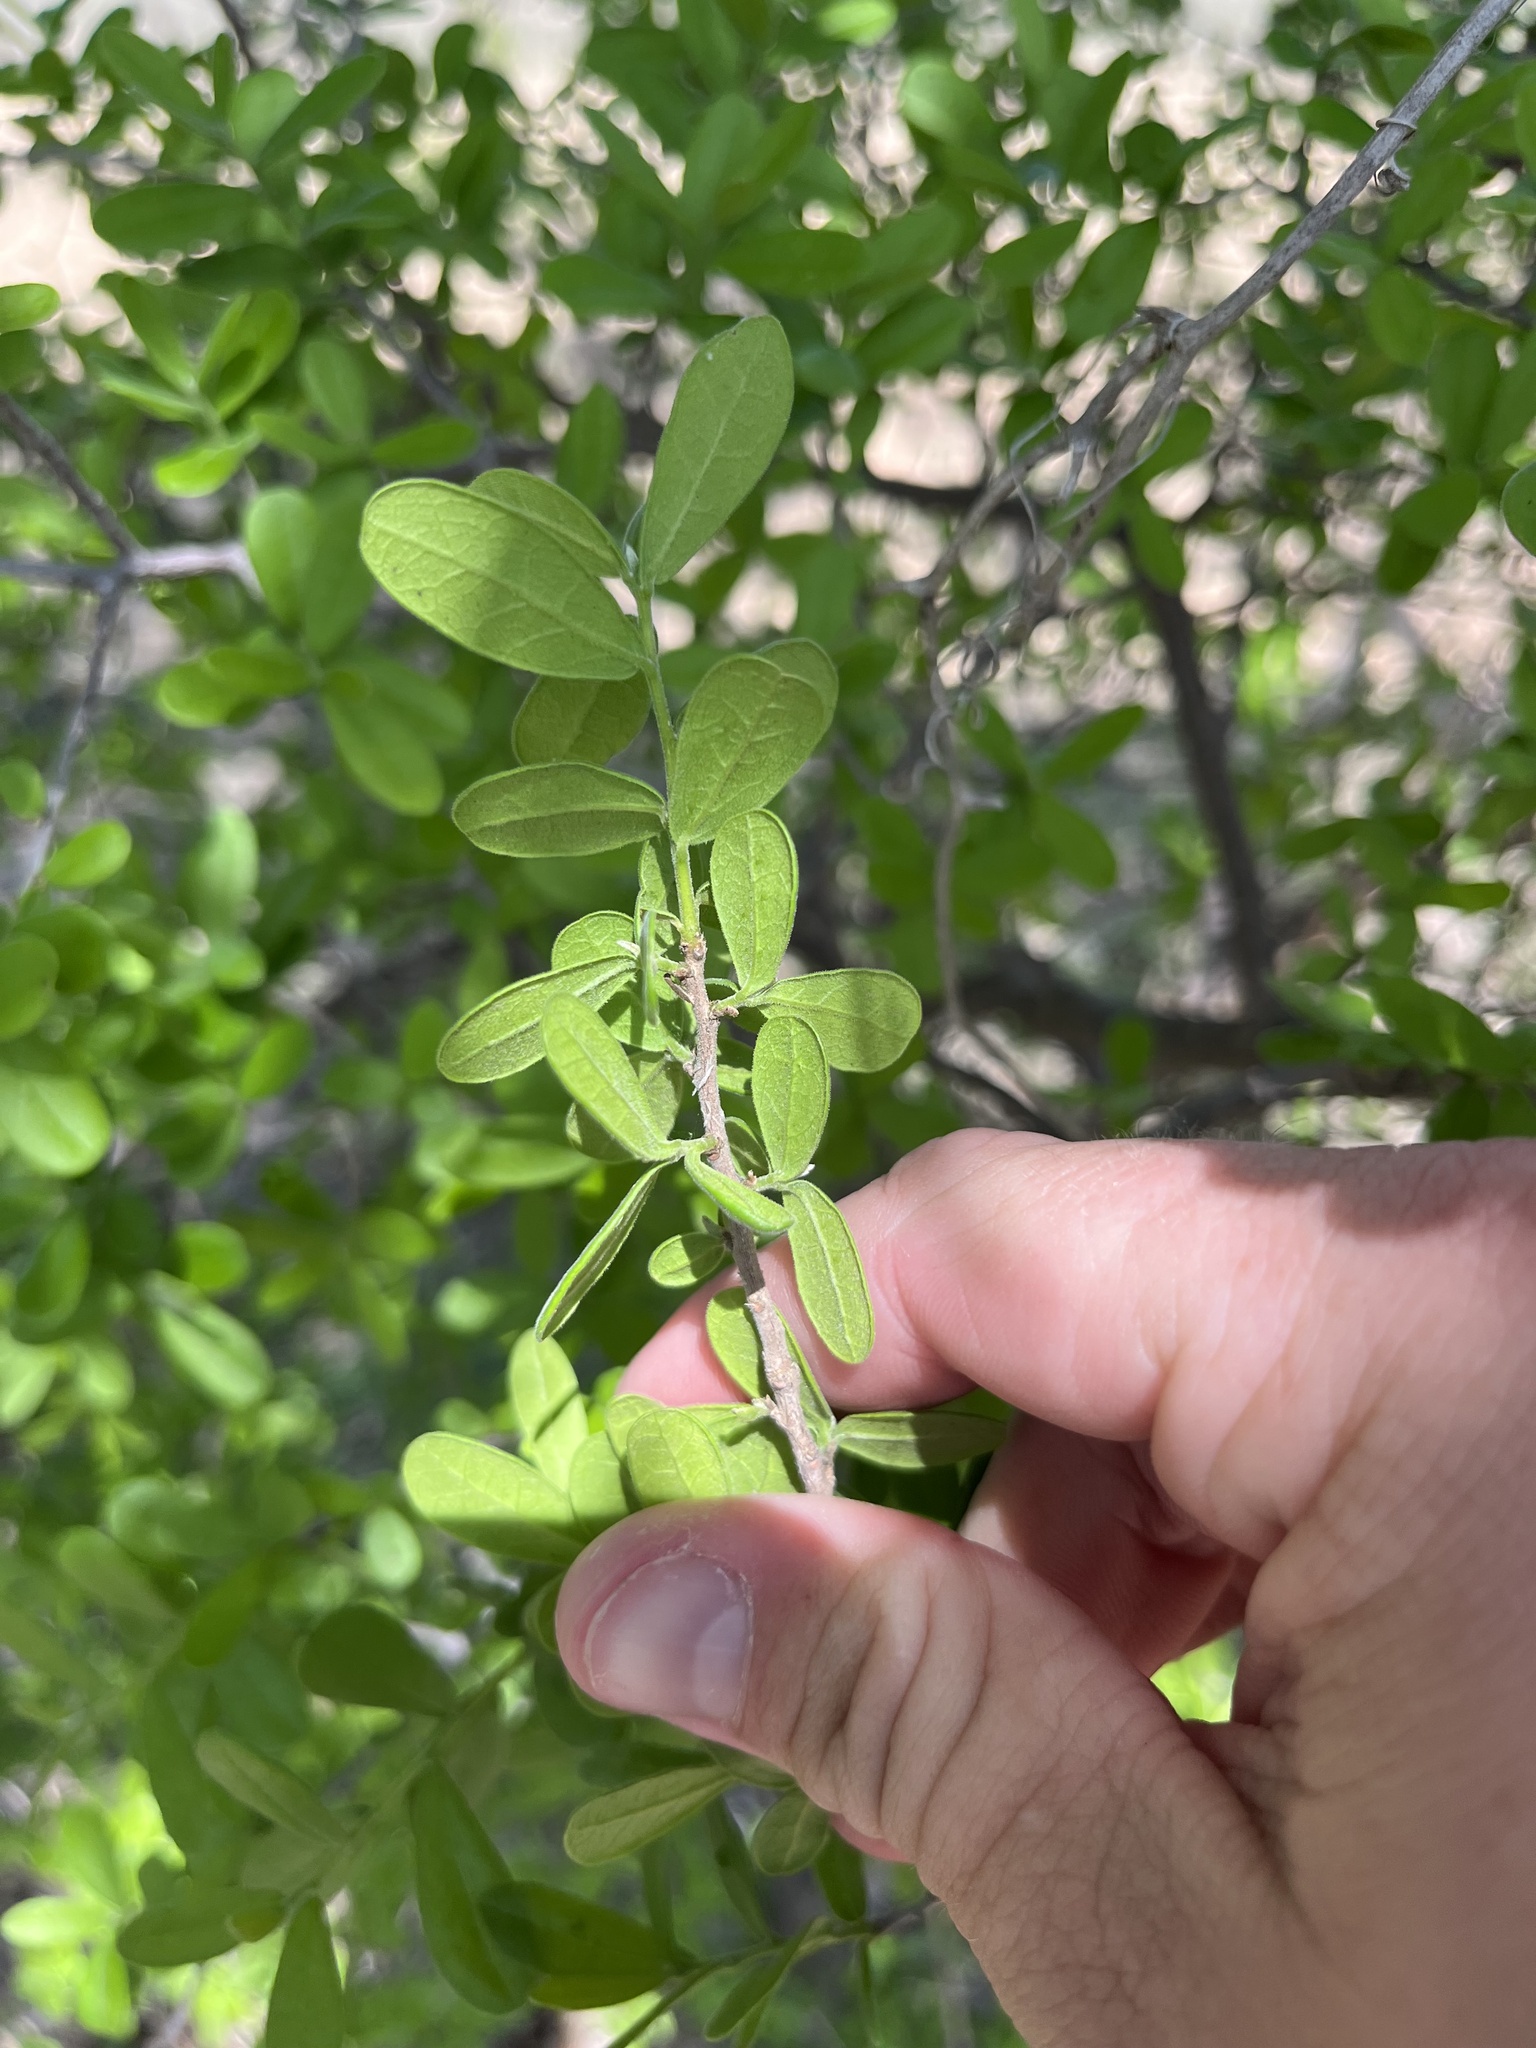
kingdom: Plantae
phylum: Tracheophyta
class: Magnoliopsida
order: Ericales
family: Ebenaceae
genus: Diospyros
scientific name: Diospyros texana
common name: Texas persimmon
